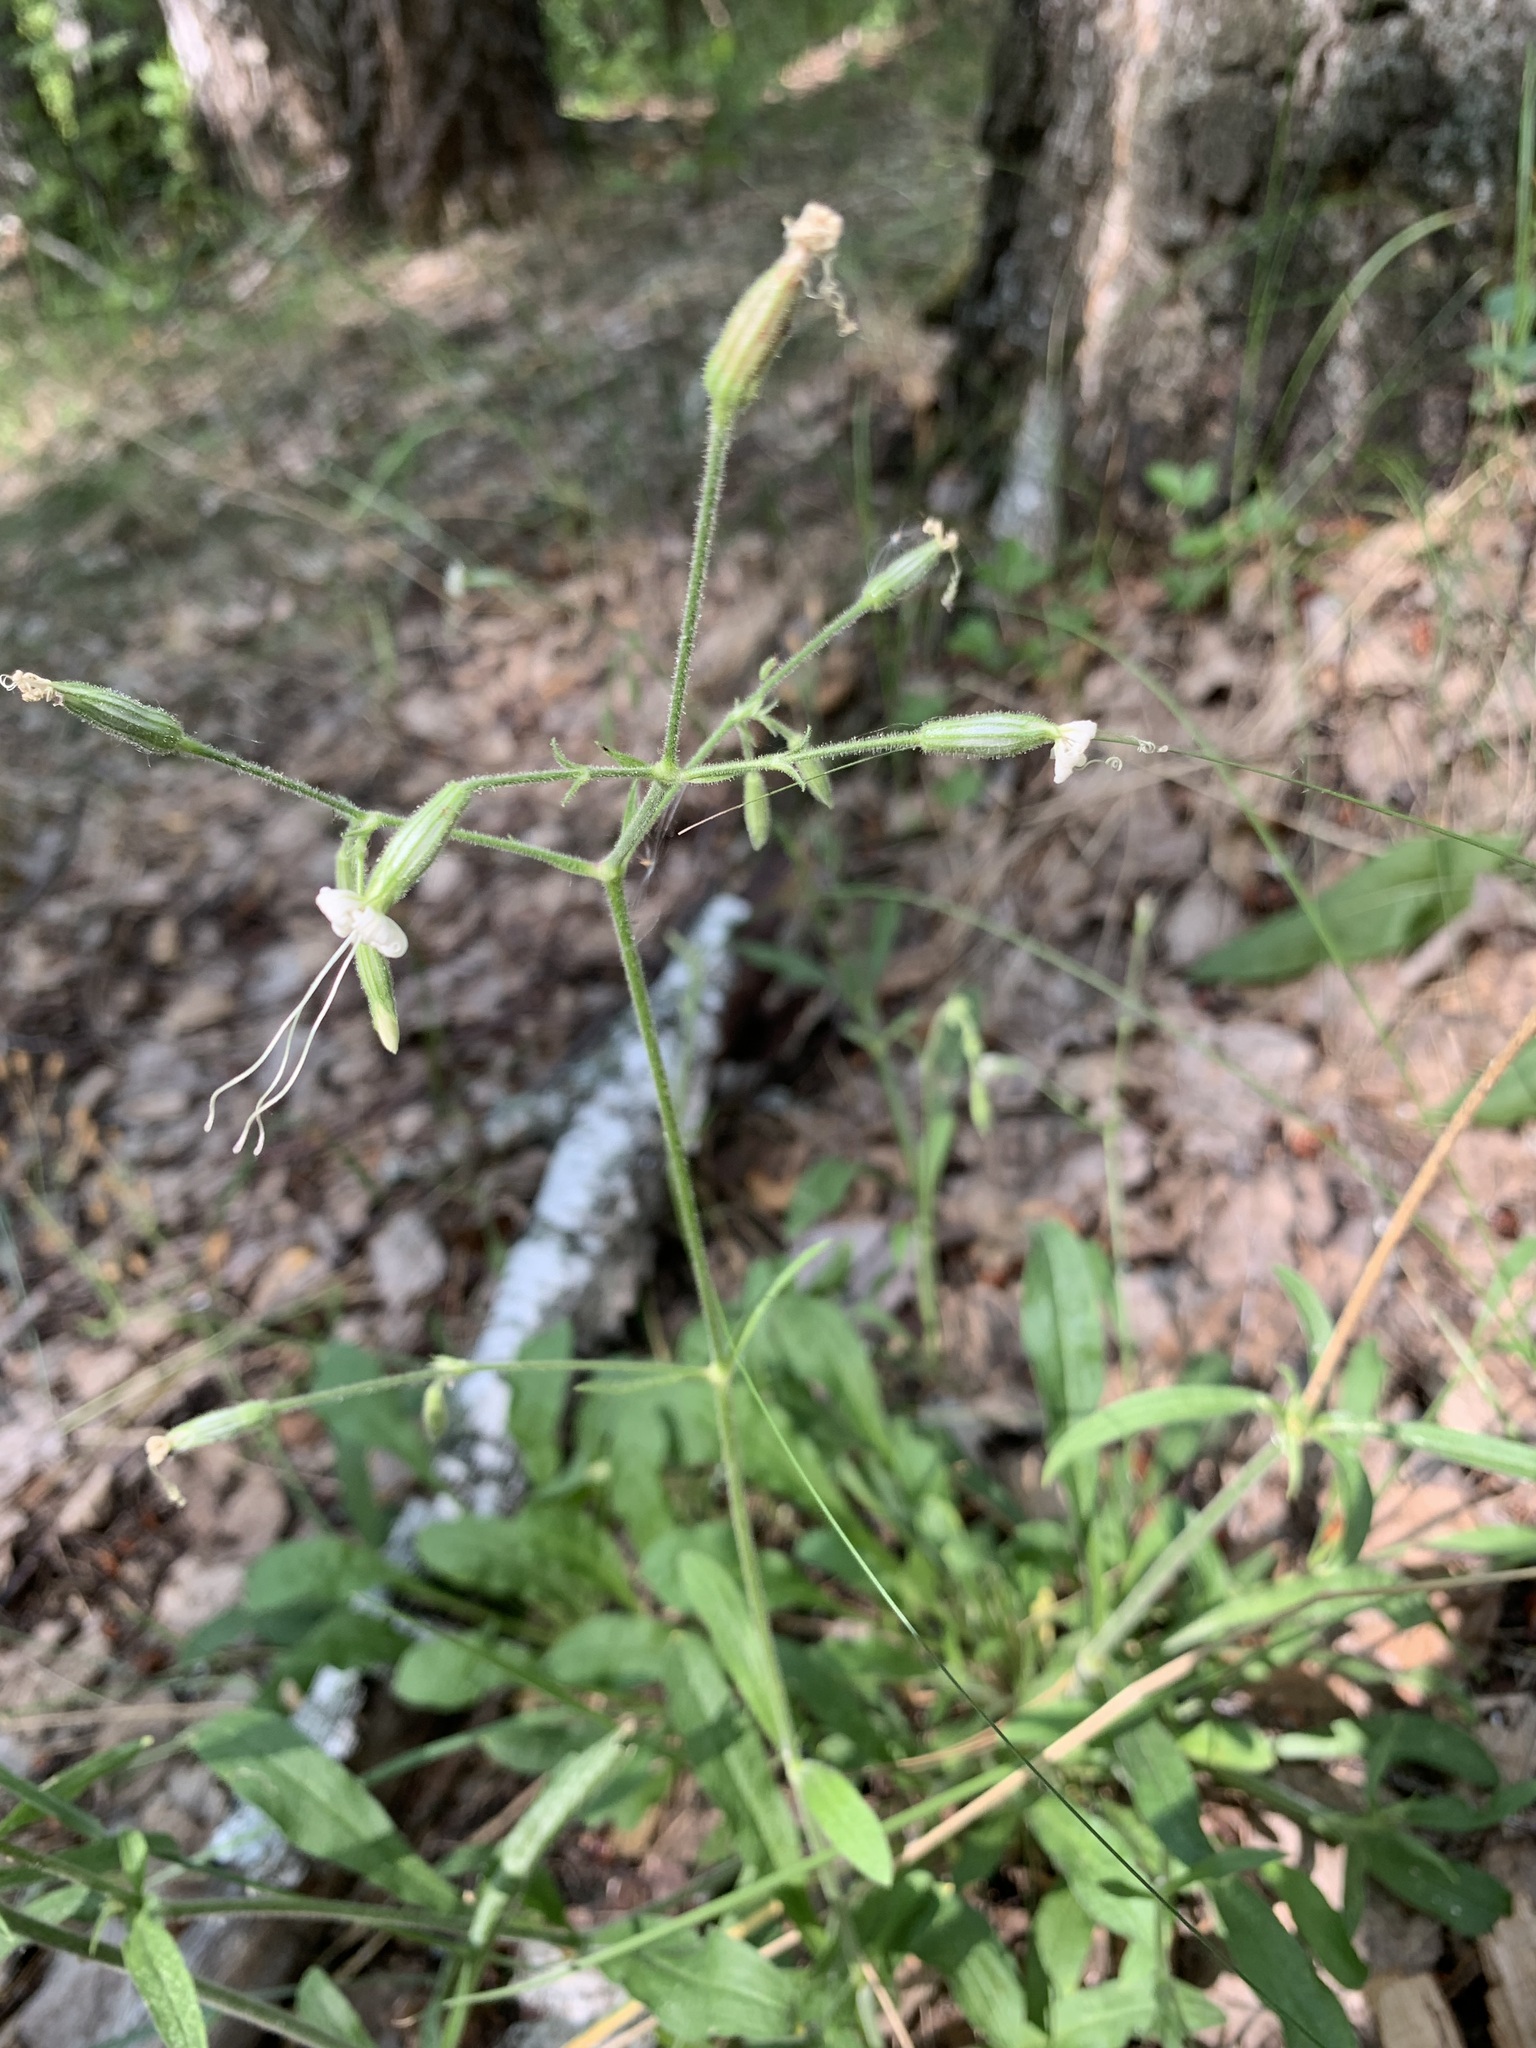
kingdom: Plantae
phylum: Tracheophyta
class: Magnoliopsida
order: Caryophyllales
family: Caryophyllaceae
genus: Silene
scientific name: Silene nutans
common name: Nottingham catchfly
